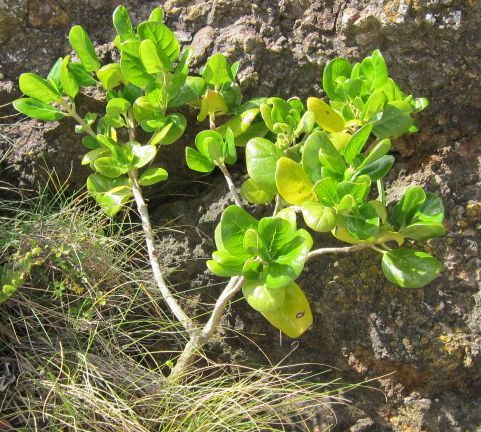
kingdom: Plantae
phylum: Tracheophyta
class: Magnoliopsida
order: Gentianales
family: Rubiaceae
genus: Coprosma
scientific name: Coprosma repens
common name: Tree bedstraw
